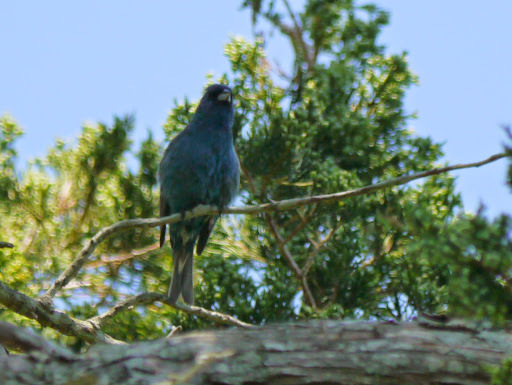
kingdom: Animalia
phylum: Chordata
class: Aves
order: Passeriformes
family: Cardinalidae
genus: Passerina
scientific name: Passerina cyanea
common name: Indigo bunting
